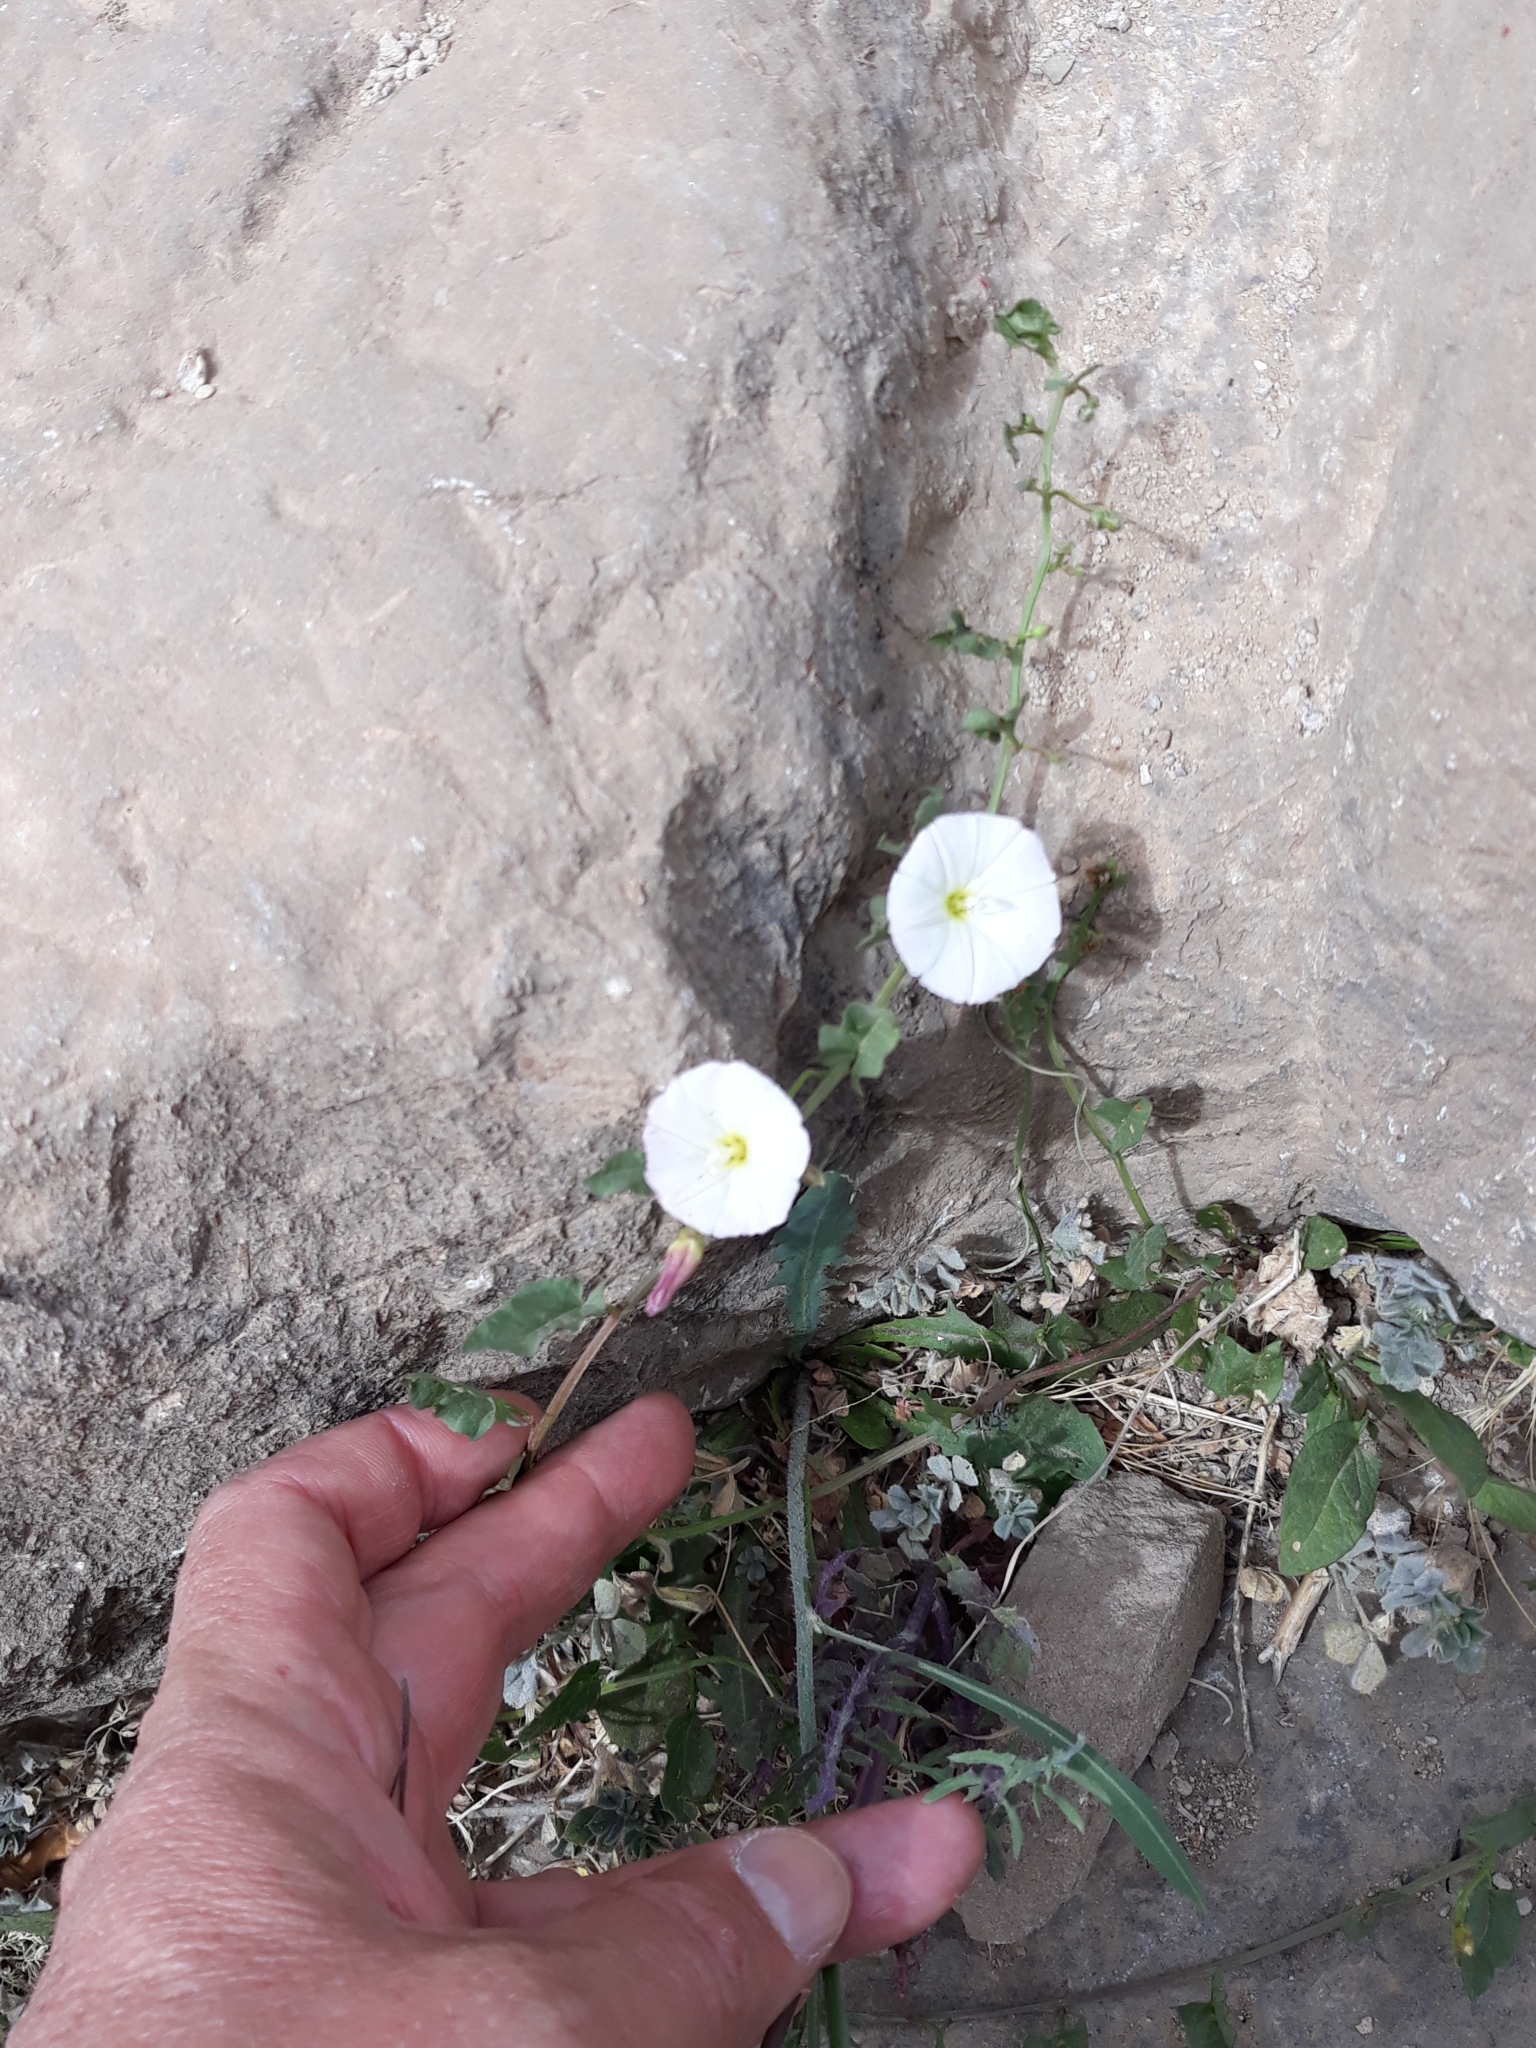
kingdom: Plantae
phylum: Tracheophyta
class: Magnoliopsida
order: Solanales
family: Convolvulaceae
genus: Convolvulus
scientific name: Convolvulus arvensis
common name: Field bindweed
